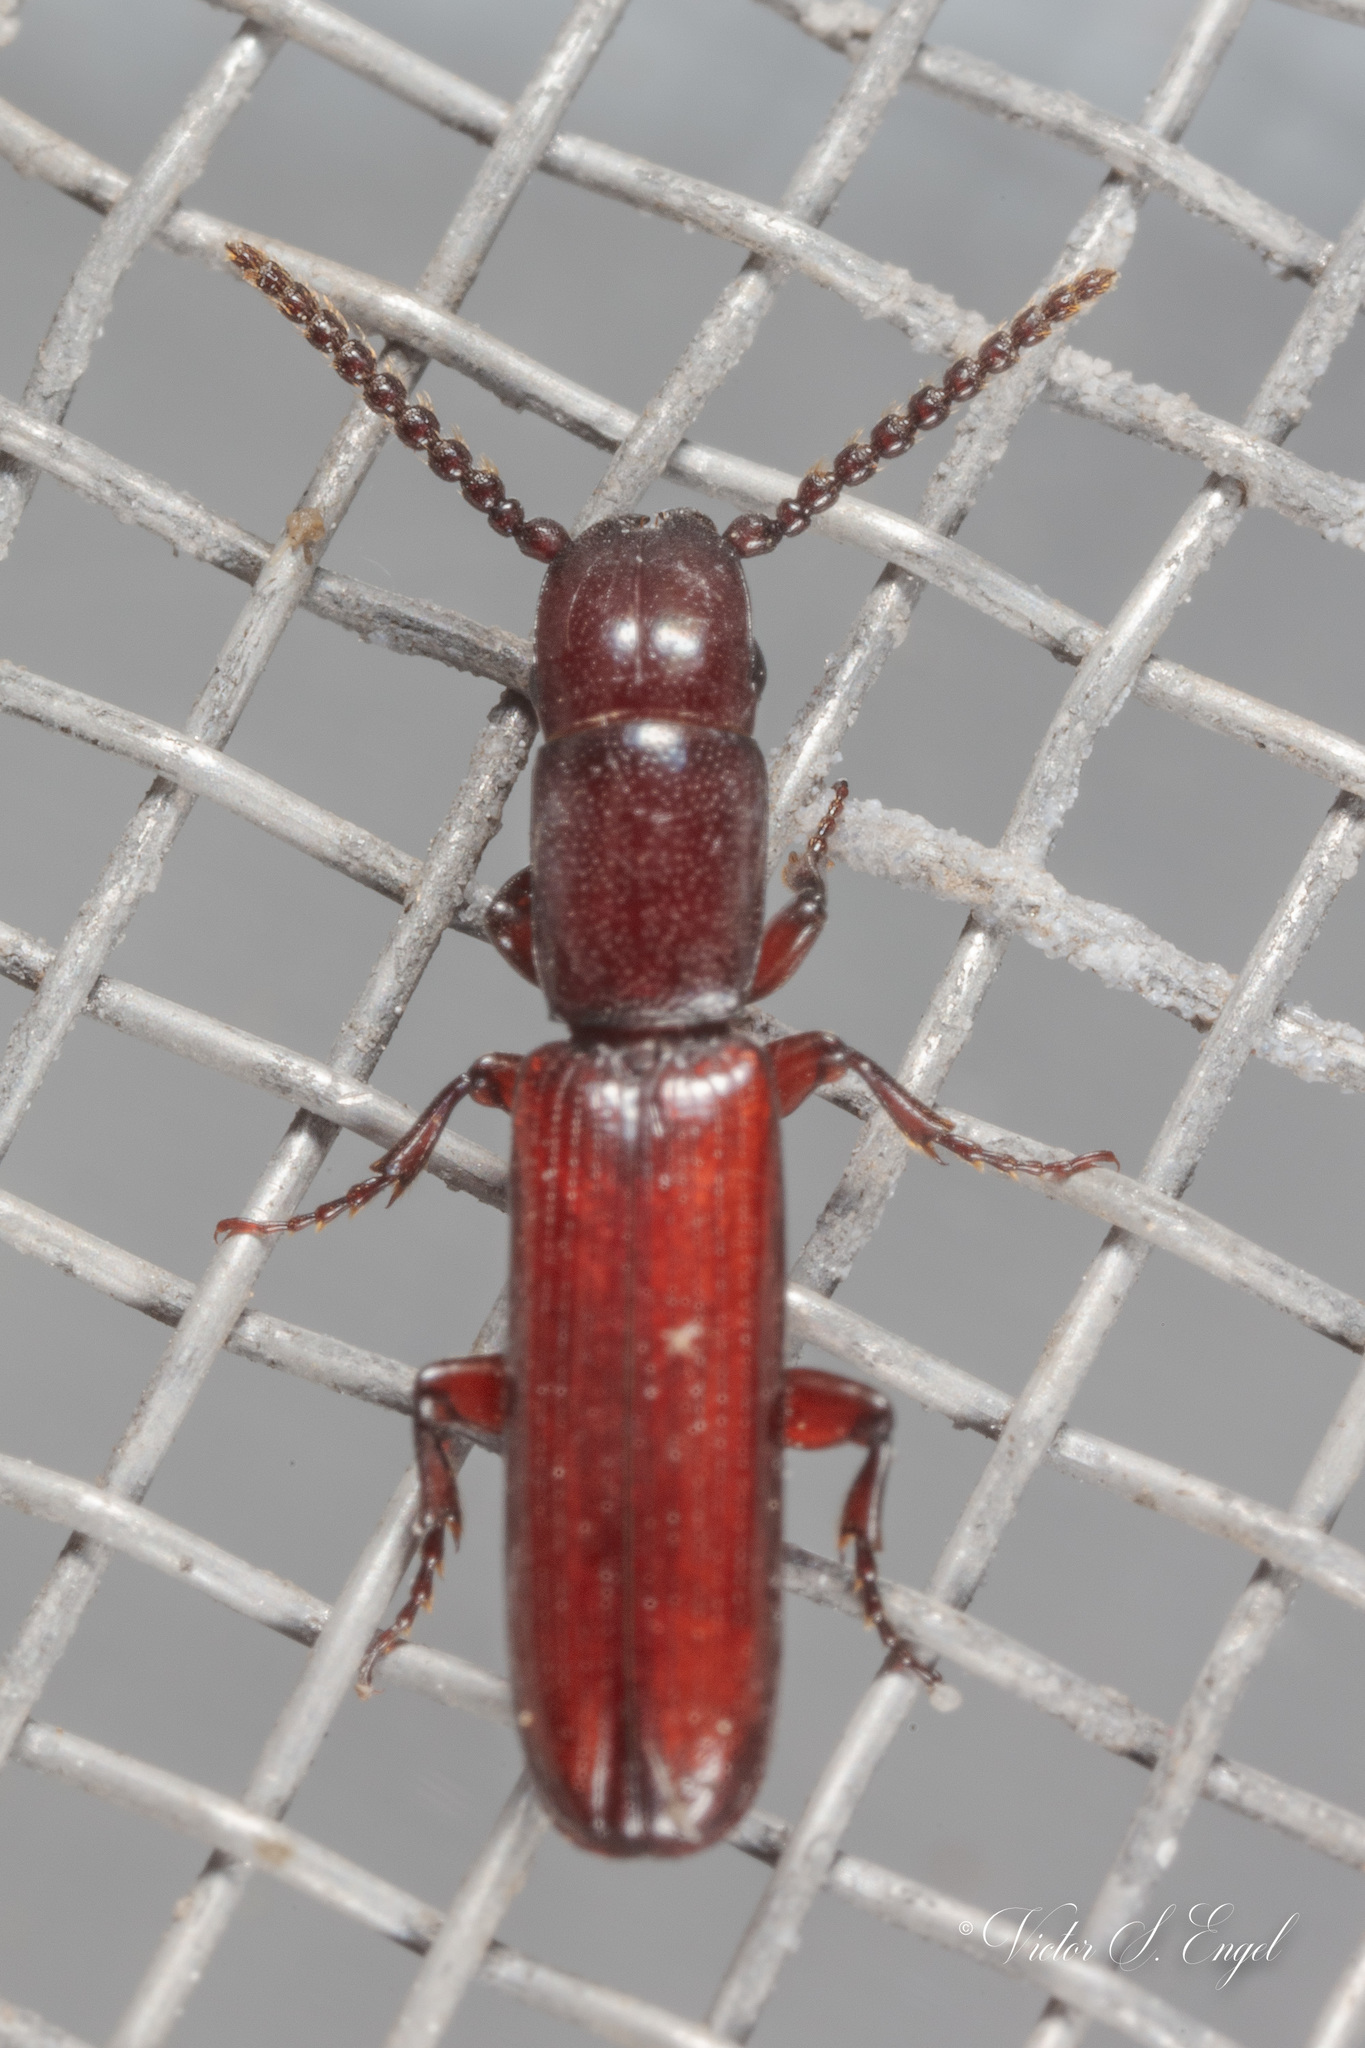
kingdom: Animalia
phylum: Arthropoda
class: Insecta
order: Coleoptera
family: Passandridae
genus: Taphroscelidia
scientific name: Taphroscelidia linearis
